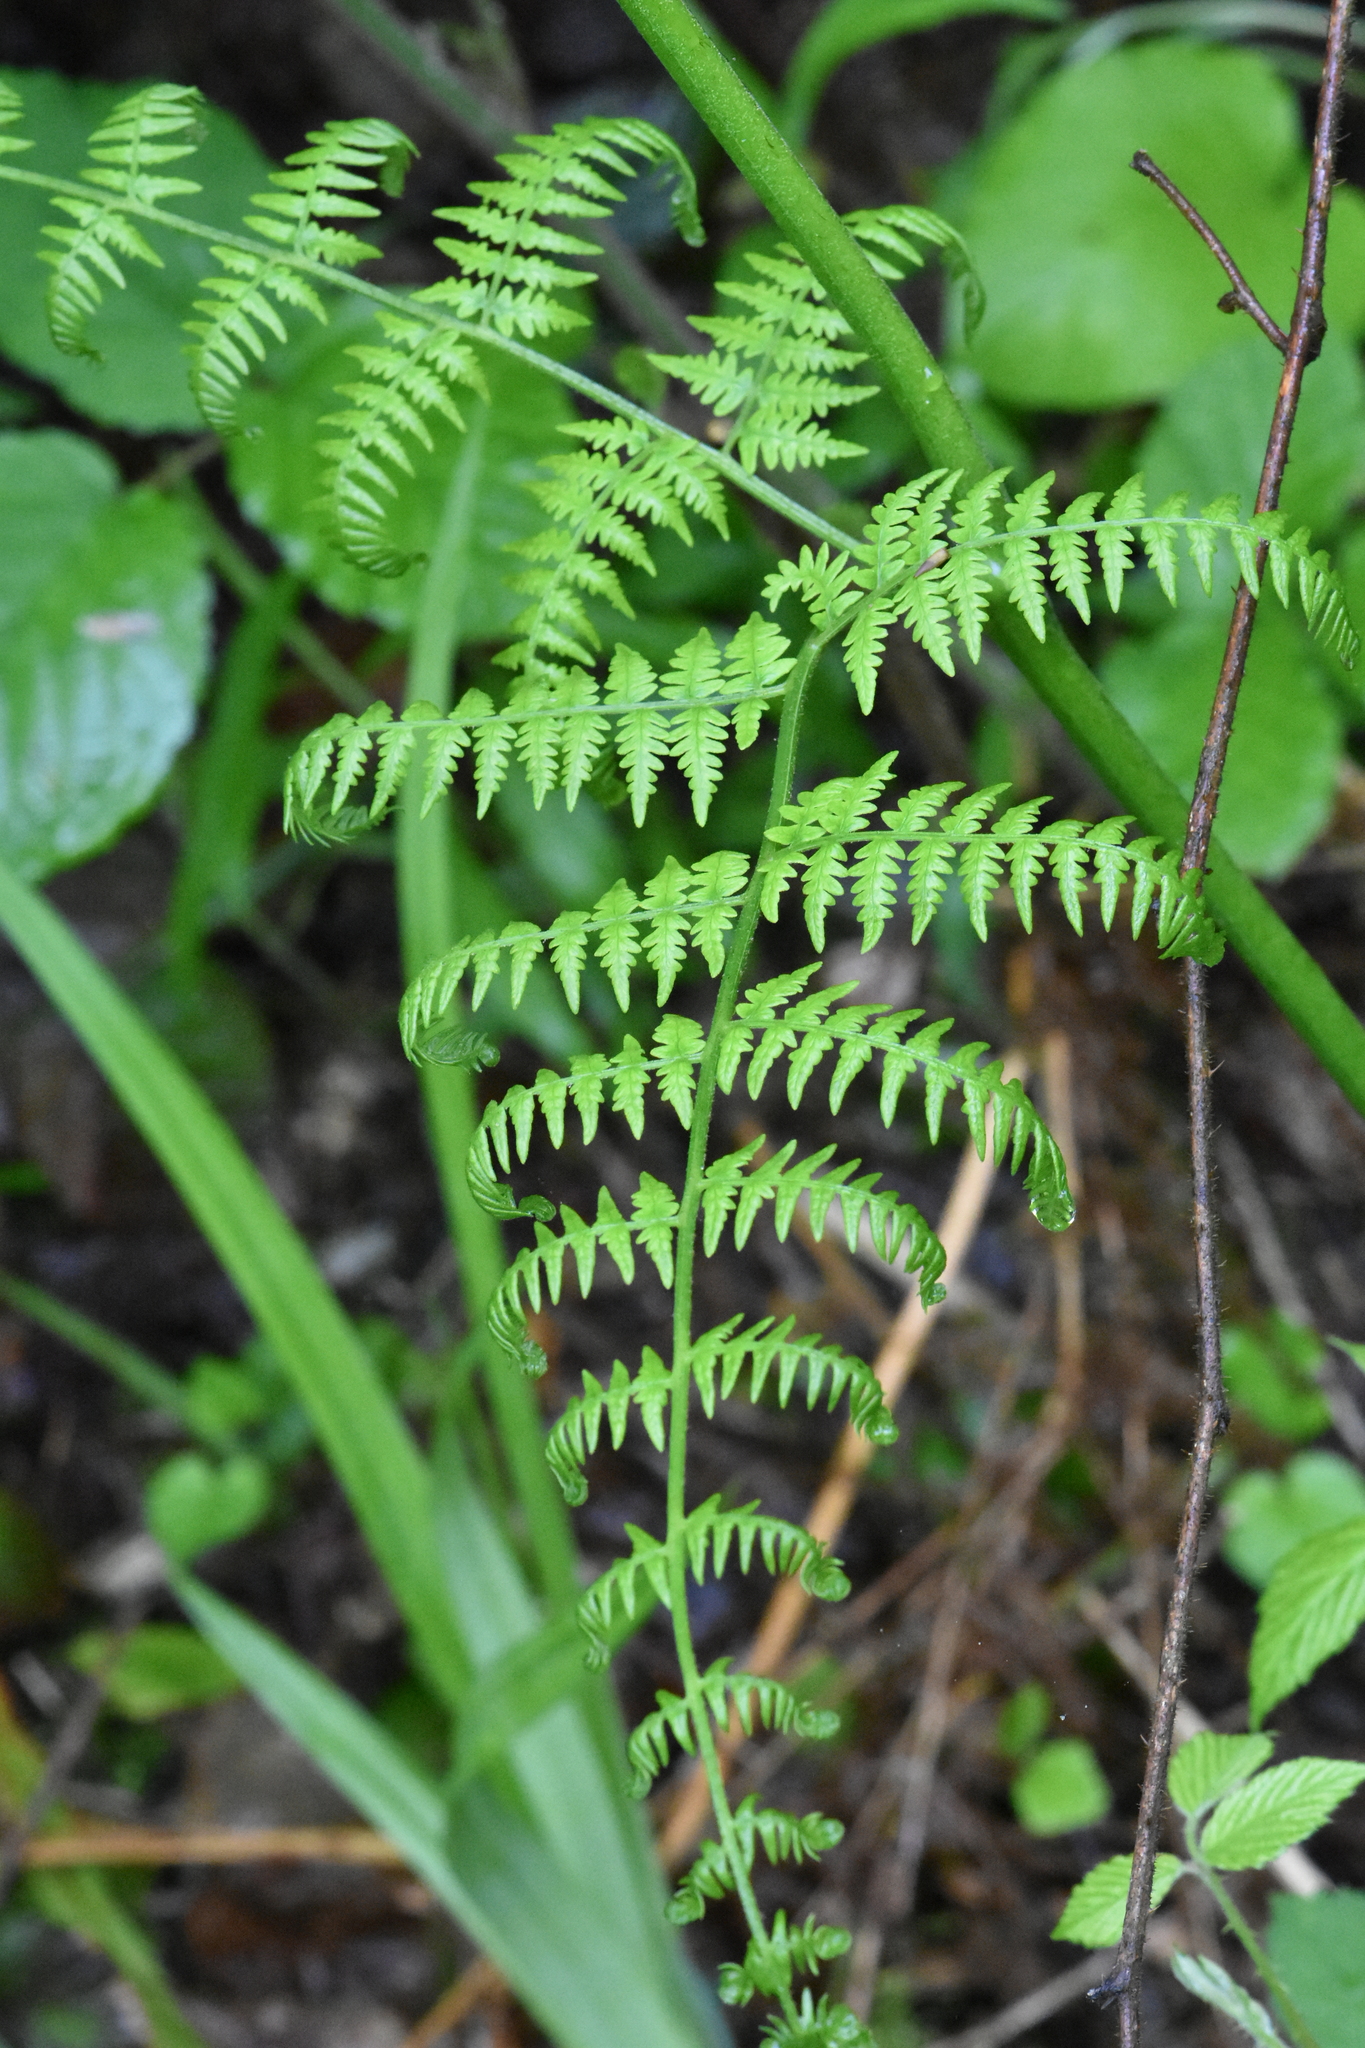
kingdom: Plantae
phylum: Tracheophyta
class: Polypodiopsida
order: Polypodiales
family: Dennstaedtiaceae
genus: Pteridium
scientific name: Pteridium tauricum
